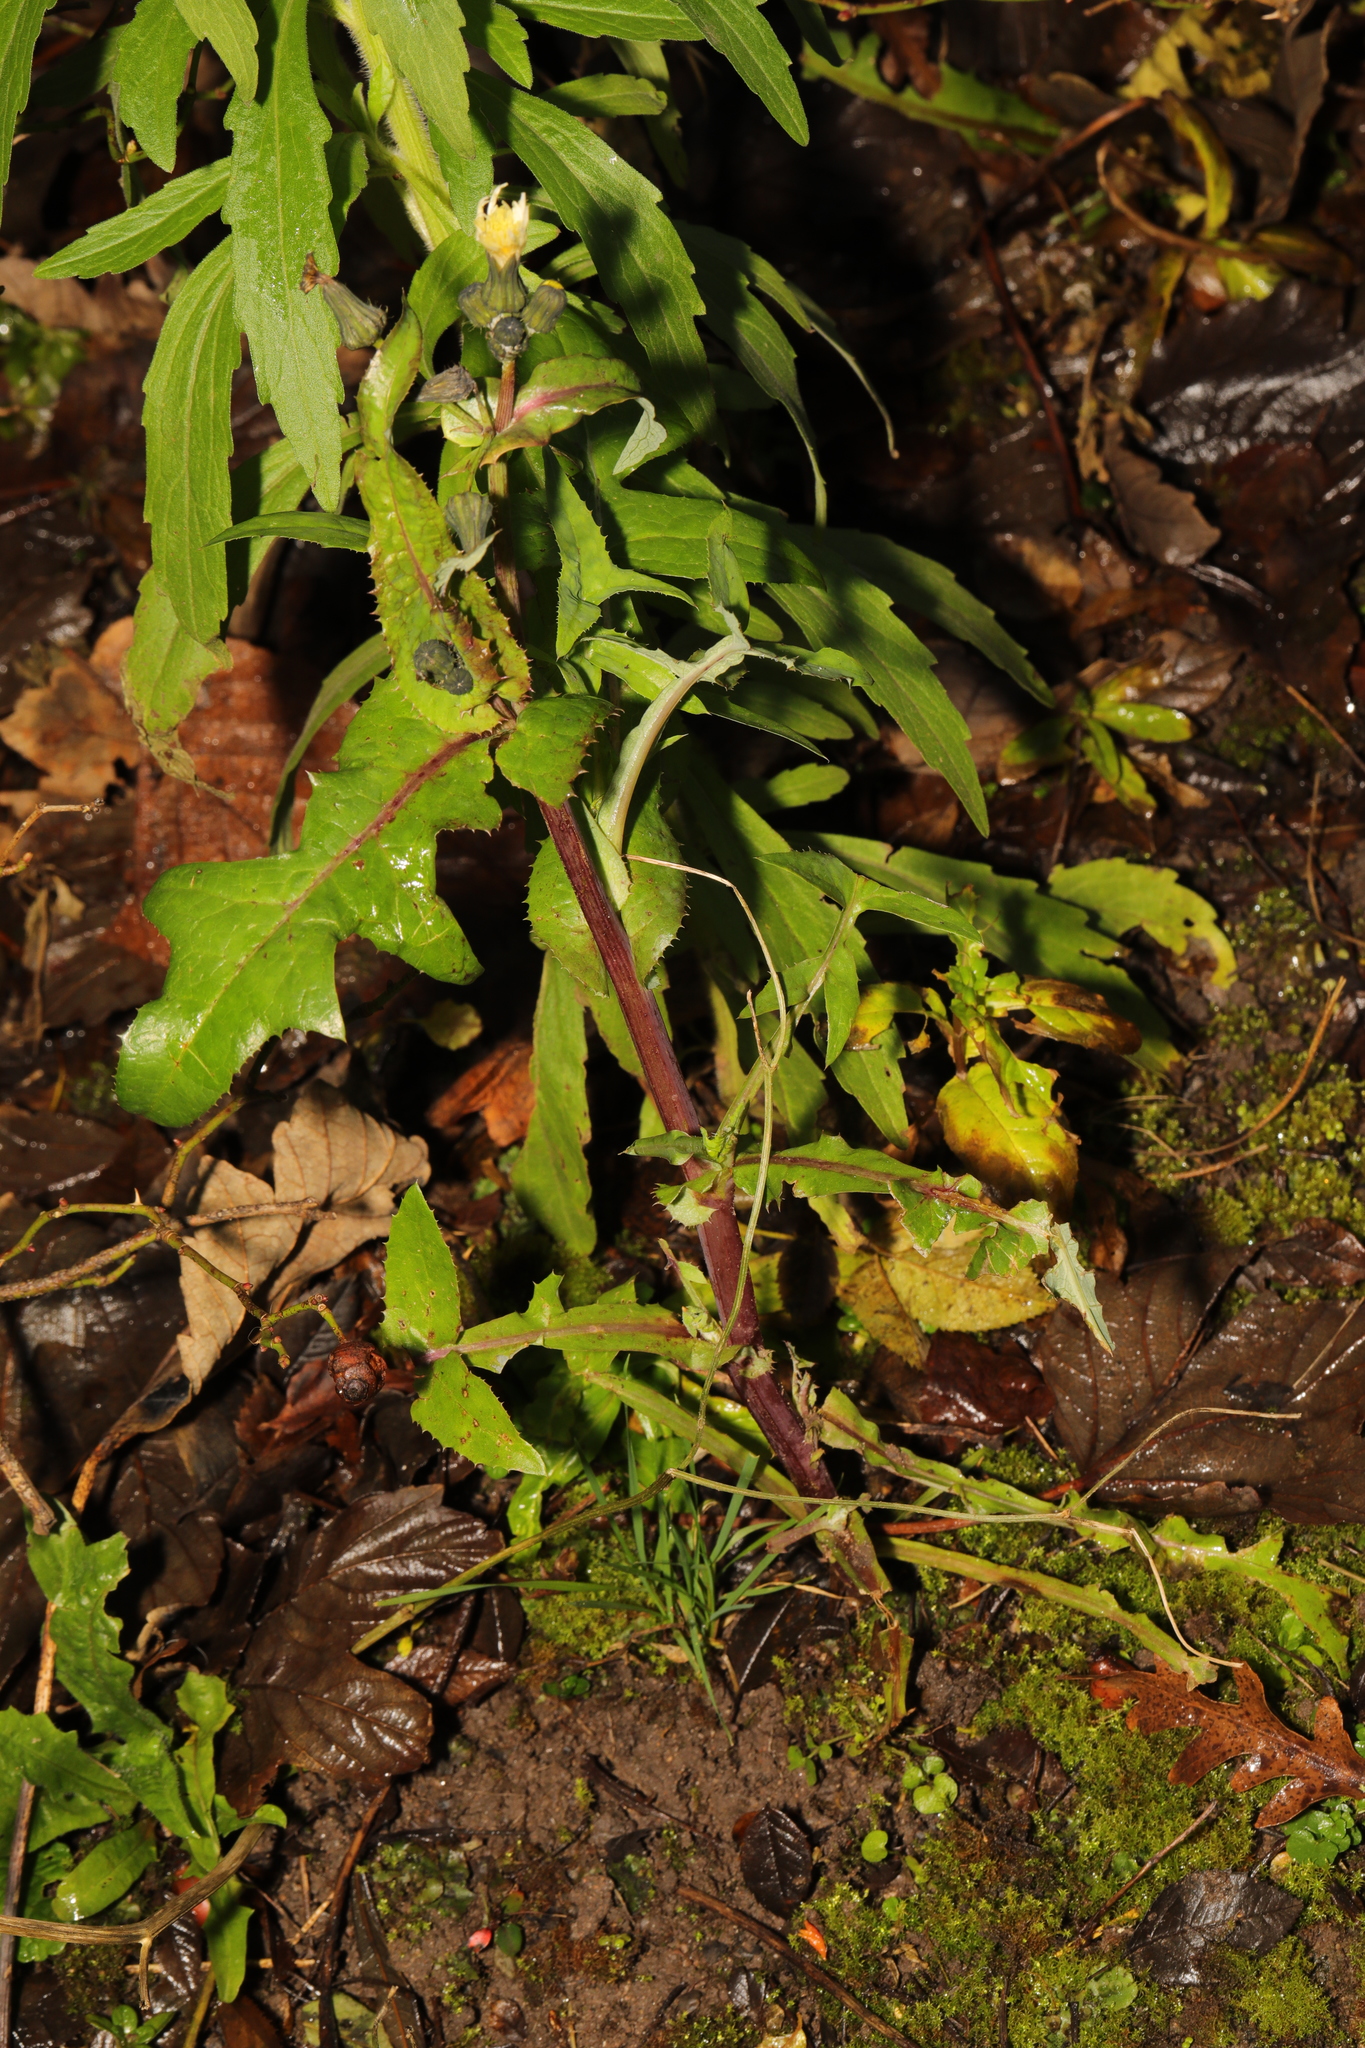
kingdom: Plantae
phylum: Tracheophyta
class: Magnoliopsida
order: Asterales
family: Asteraceae
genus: Sonchus
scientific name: Sonchus oleraceus
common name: Common sowthistle
